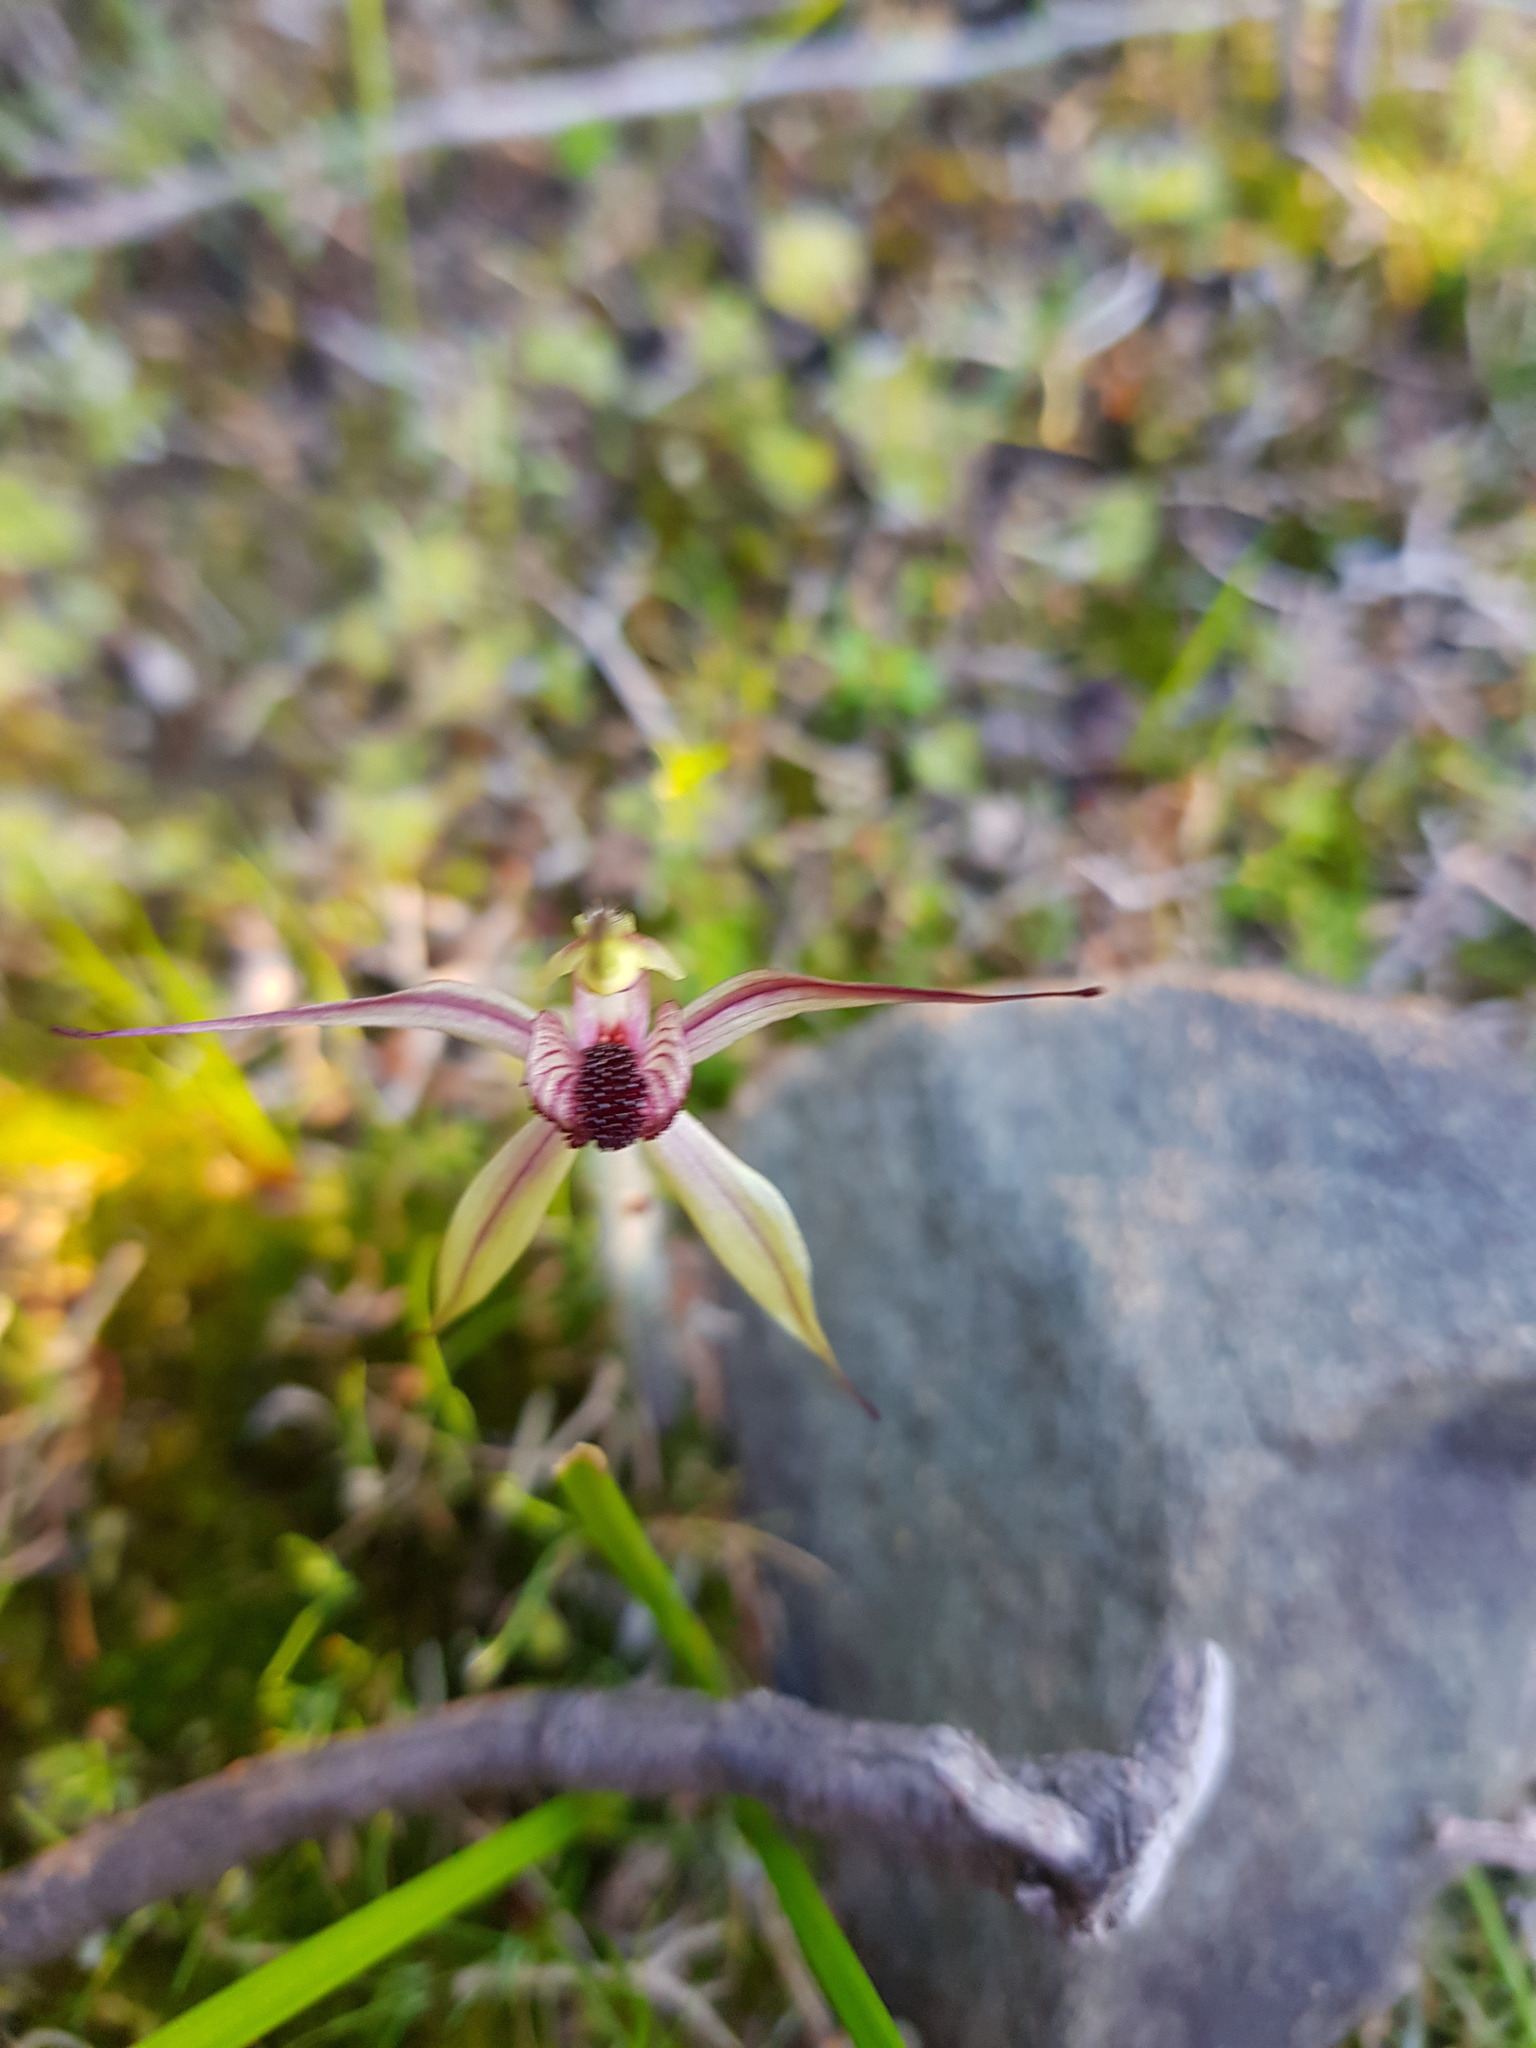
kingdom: Plantae
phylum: Tracheophyta
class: Liliopsida
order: Asparagales
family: Orchidaceae
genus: Caladenia
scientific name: Caladenia macrostylis
